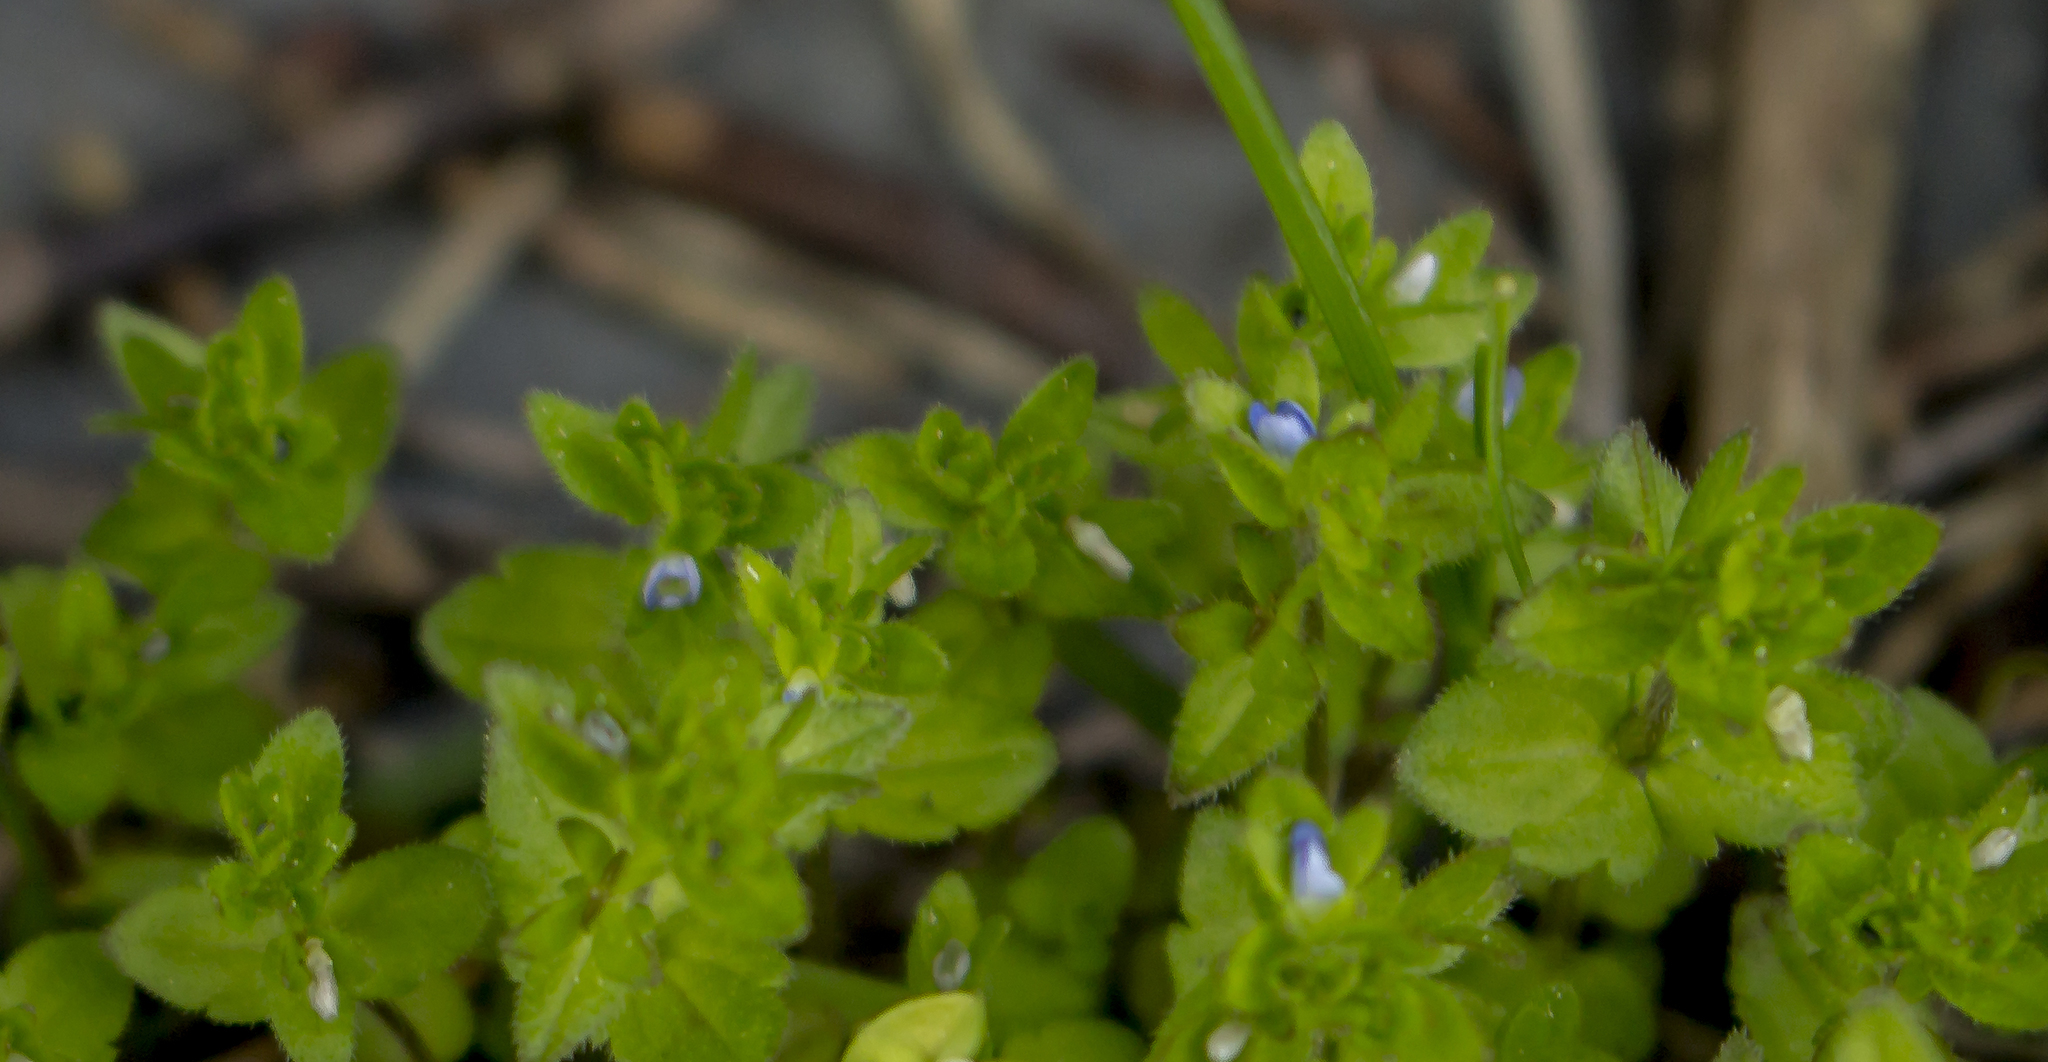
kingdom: Plantae
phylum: Tracheophyta
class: Magnoliopsida
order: Lamiales
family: Plantaginaceae
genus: Veronica
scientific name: Veronica arvensis
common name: Corn speedwell
